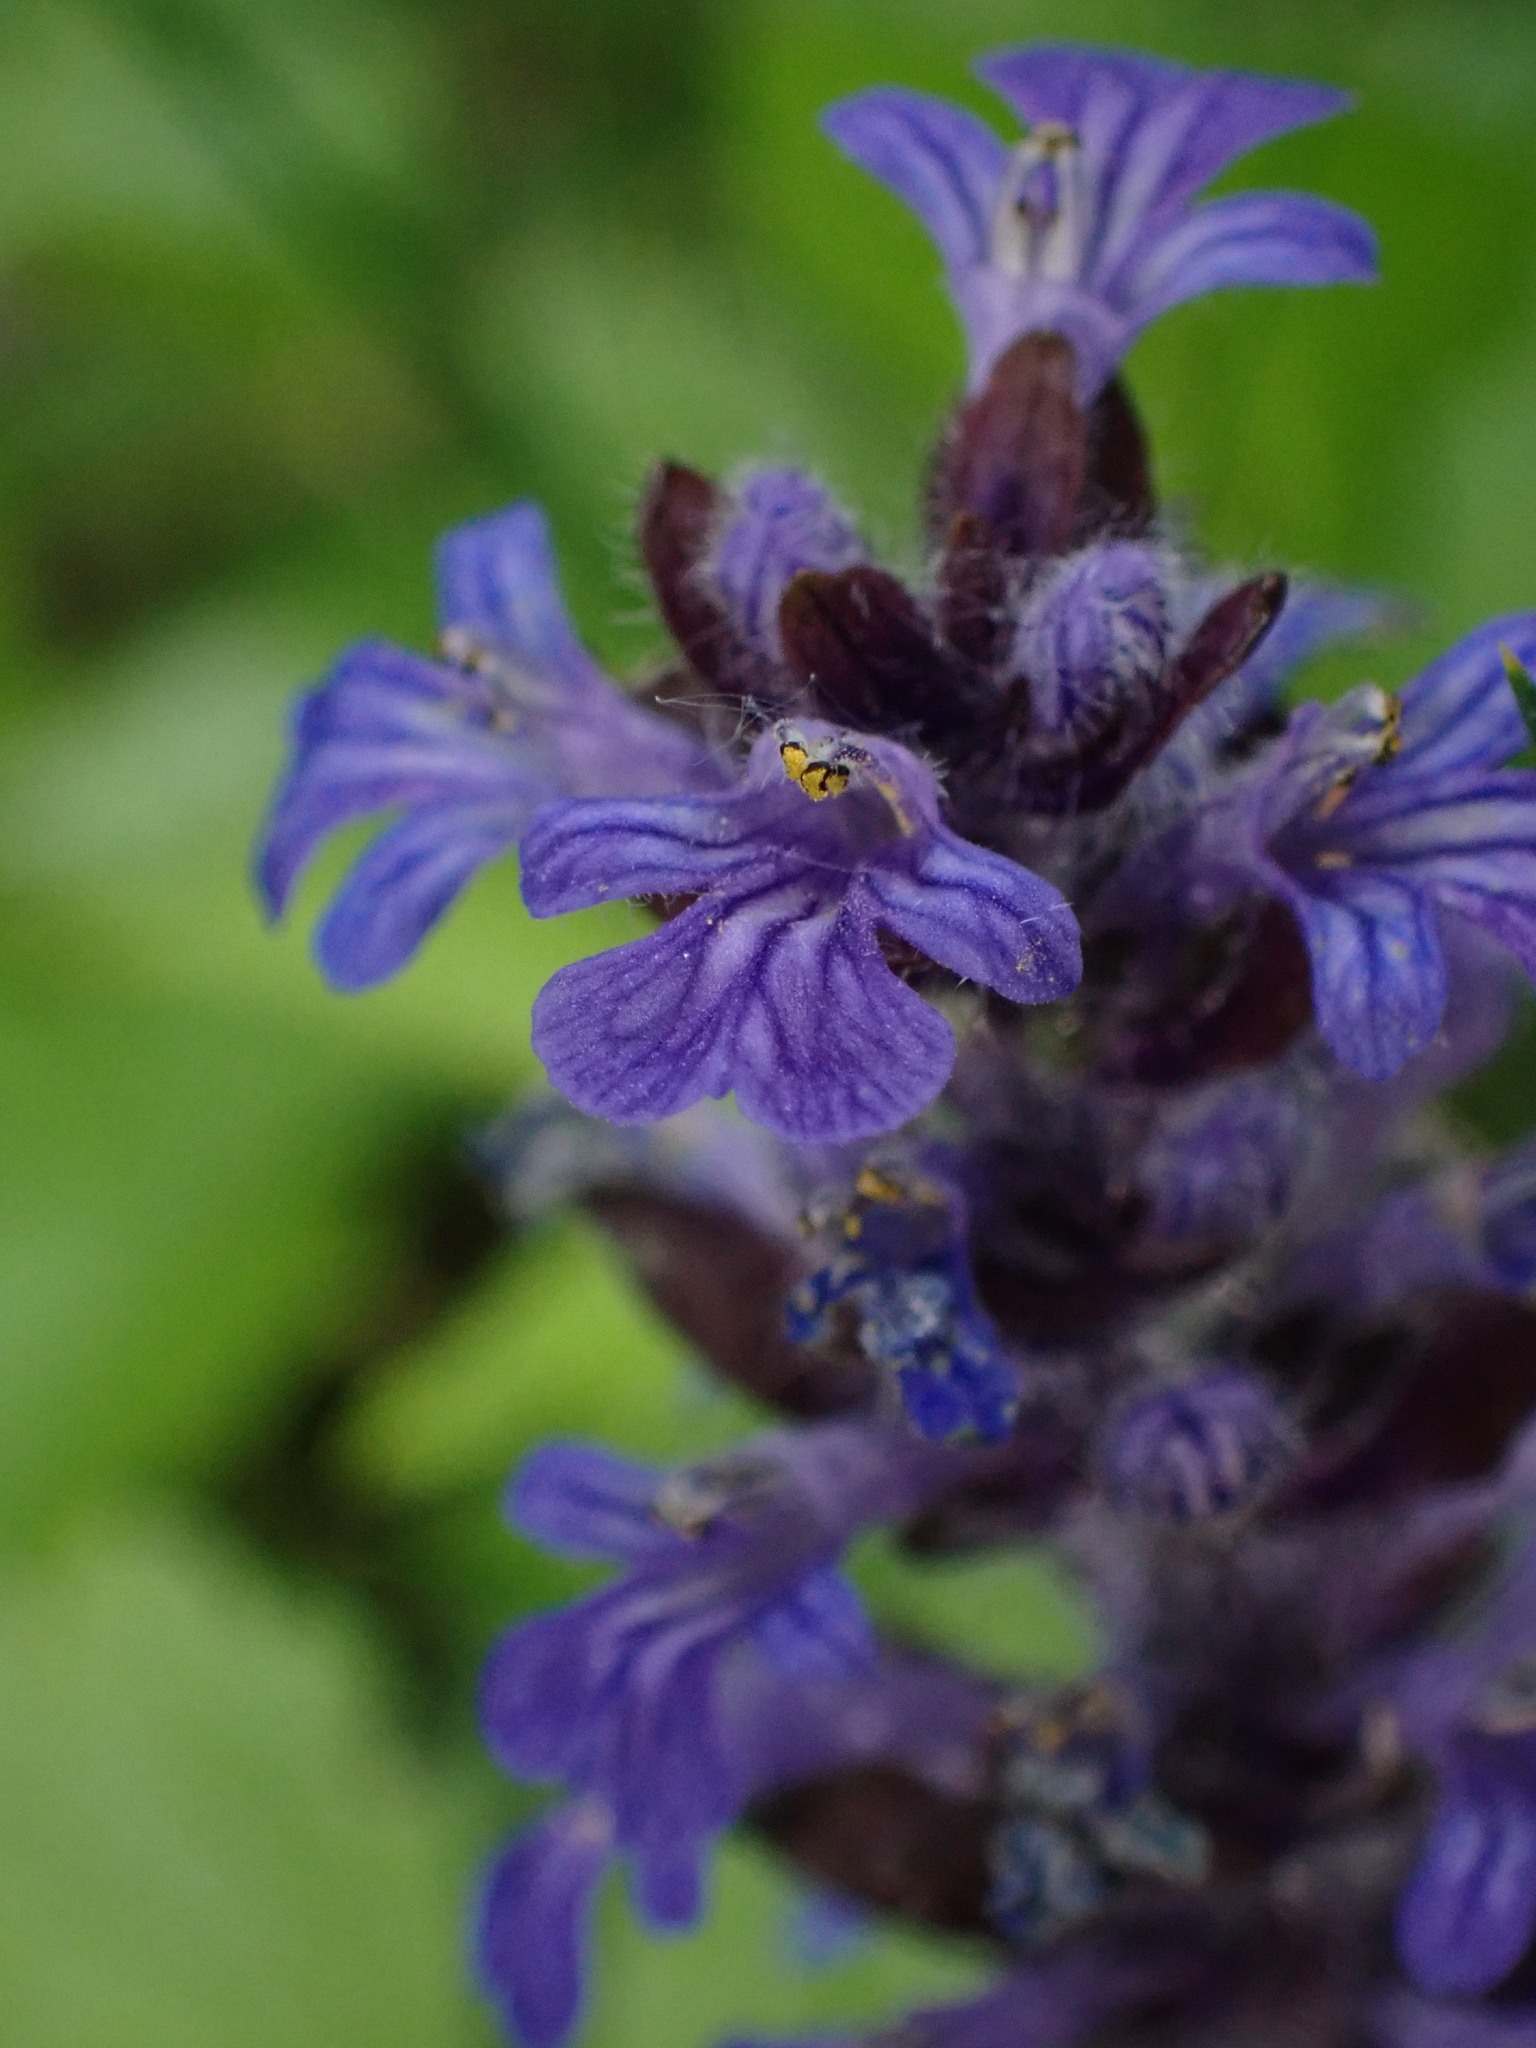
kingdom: Plantae
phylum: Tracheophyta
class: Magnoliopsida
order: Lamiales
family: Lamiaceae
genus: Ajuga
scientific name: Ajuga reptans
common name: Bugle
